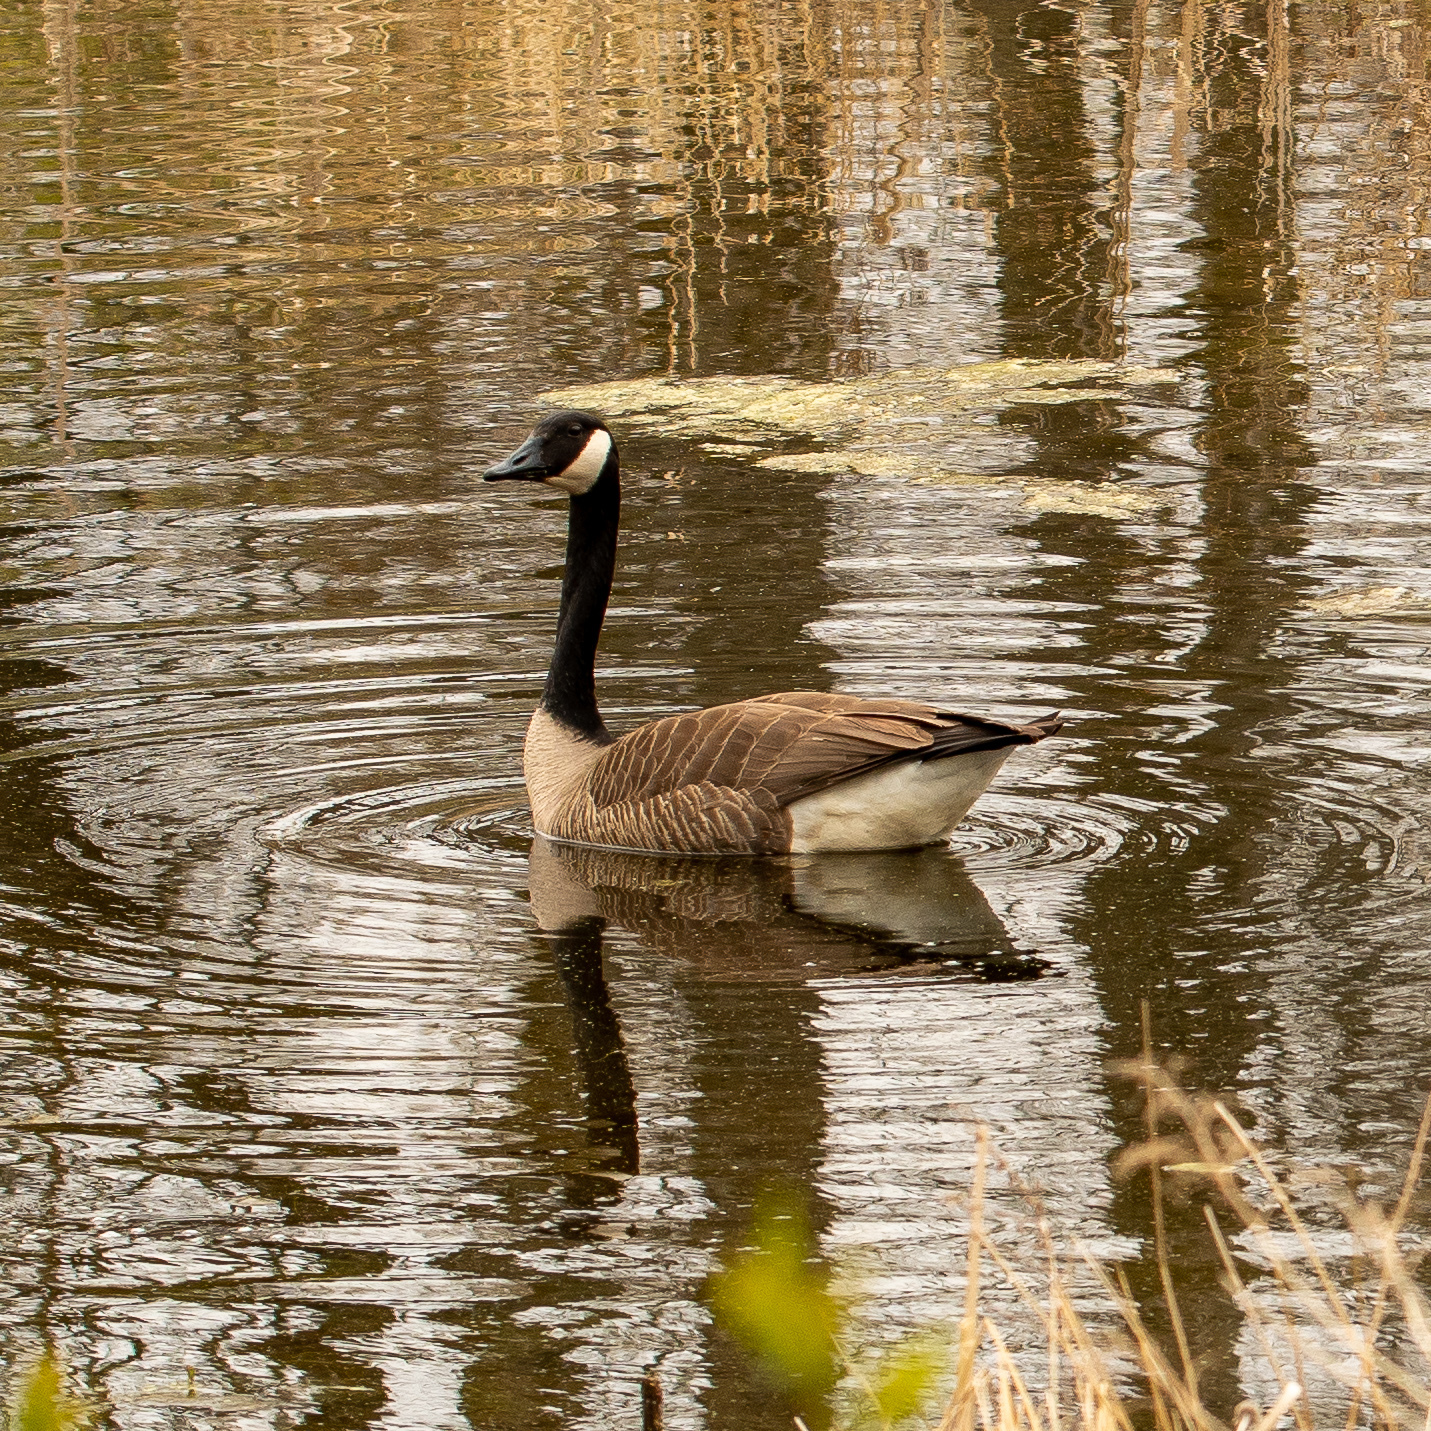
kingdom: Animalia
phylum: Chordata
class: Aves
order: Anseriformes
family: Anatidae
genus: Branta
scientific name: Branta canadensis
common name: Canada goose
